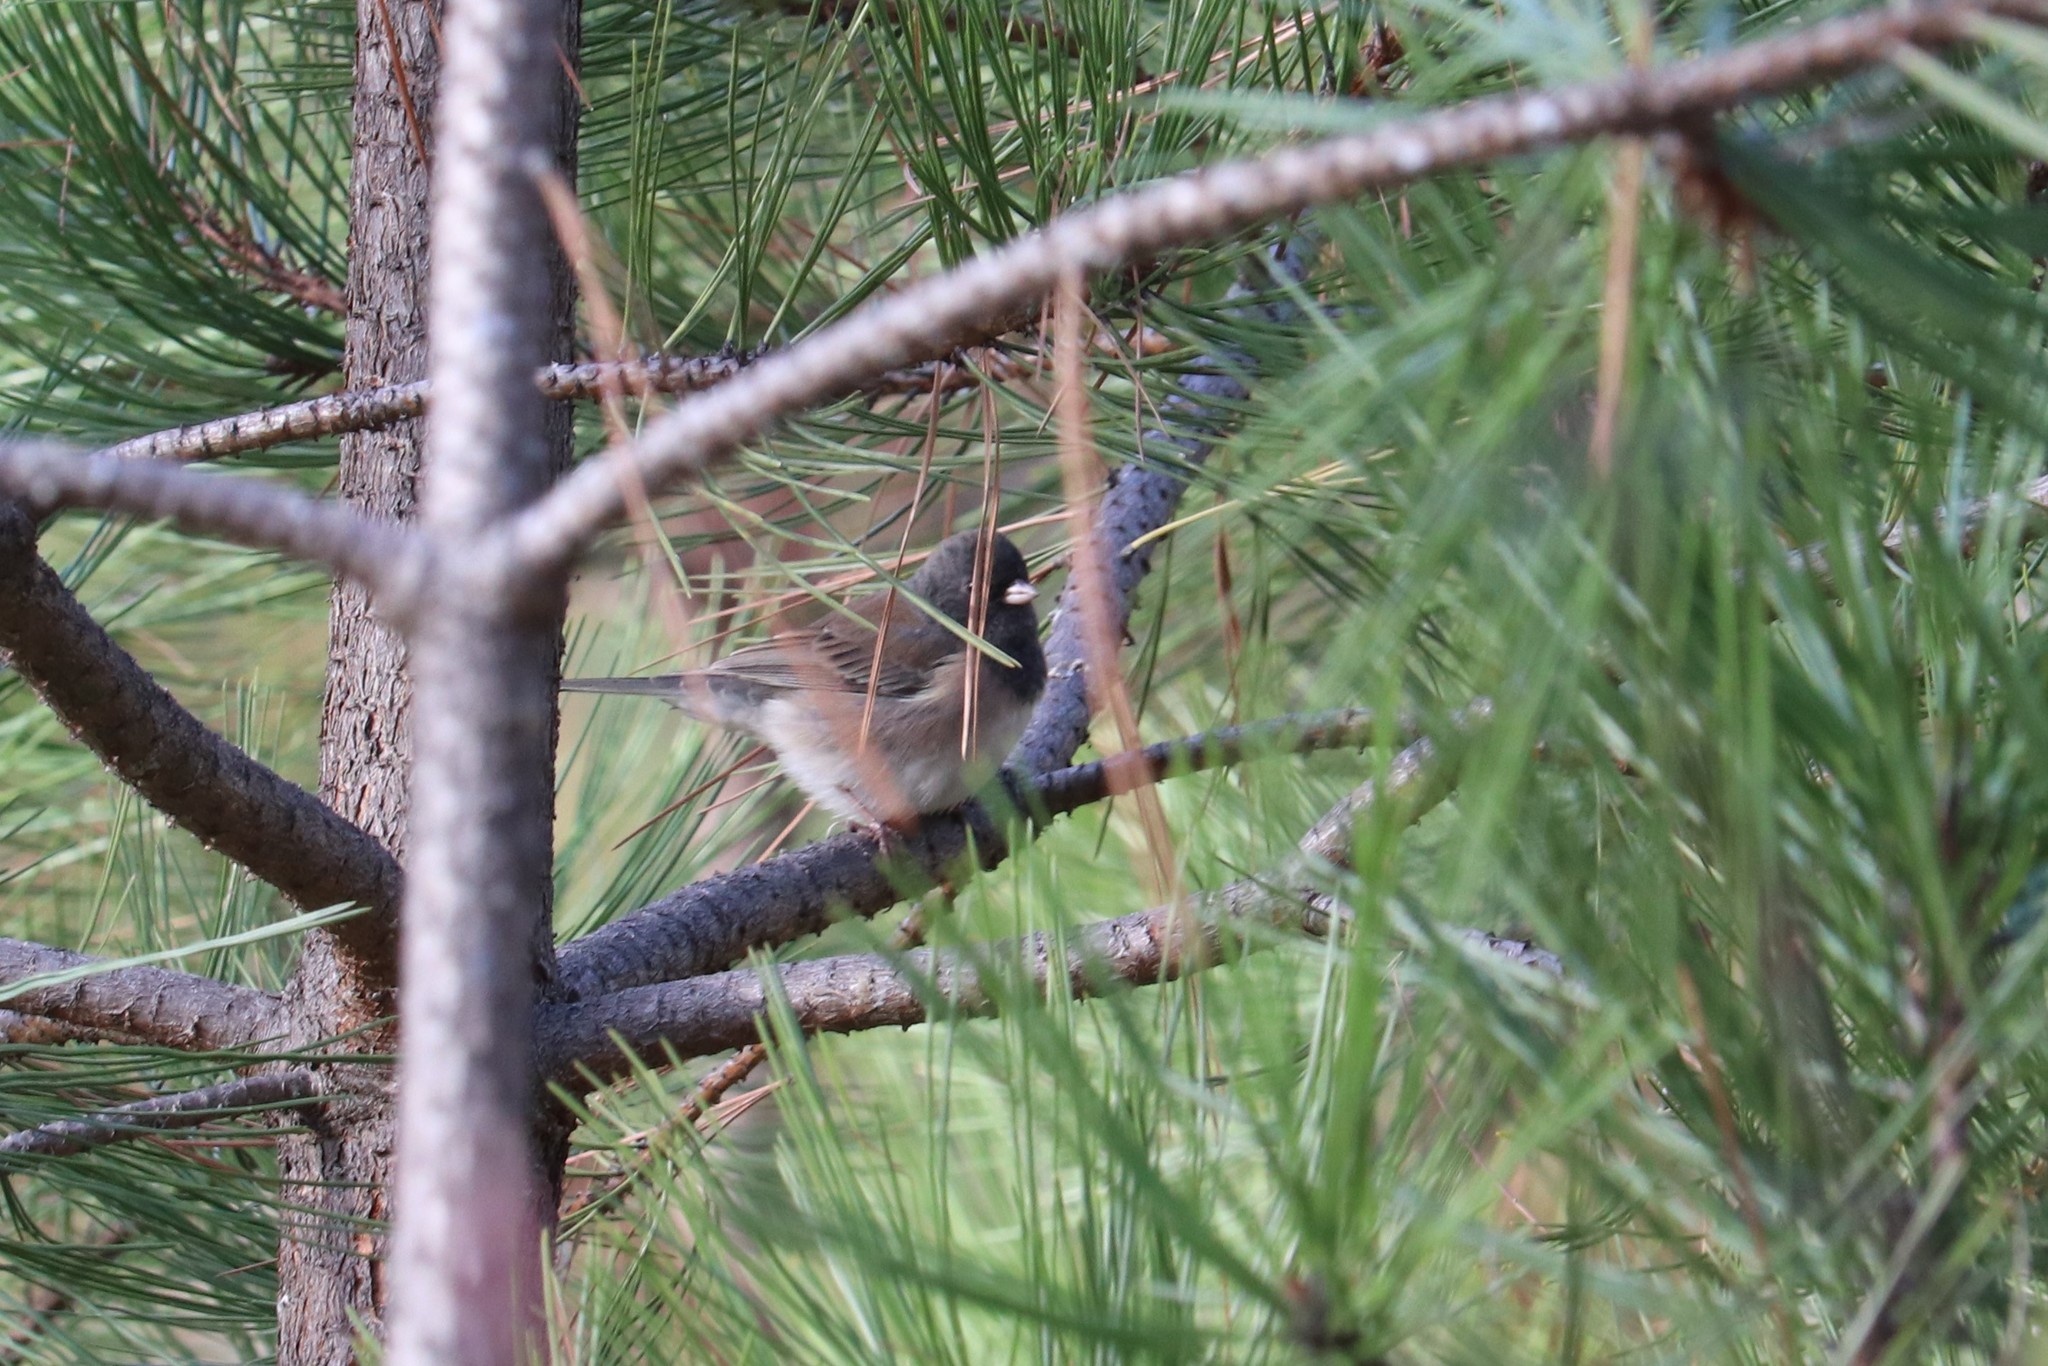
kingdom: Animalia
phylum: Chordata
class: Aves
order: Passeriformes
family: Passerellidae
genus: Junco
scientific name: Junco hyemalis
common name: Dark-eyed junco
